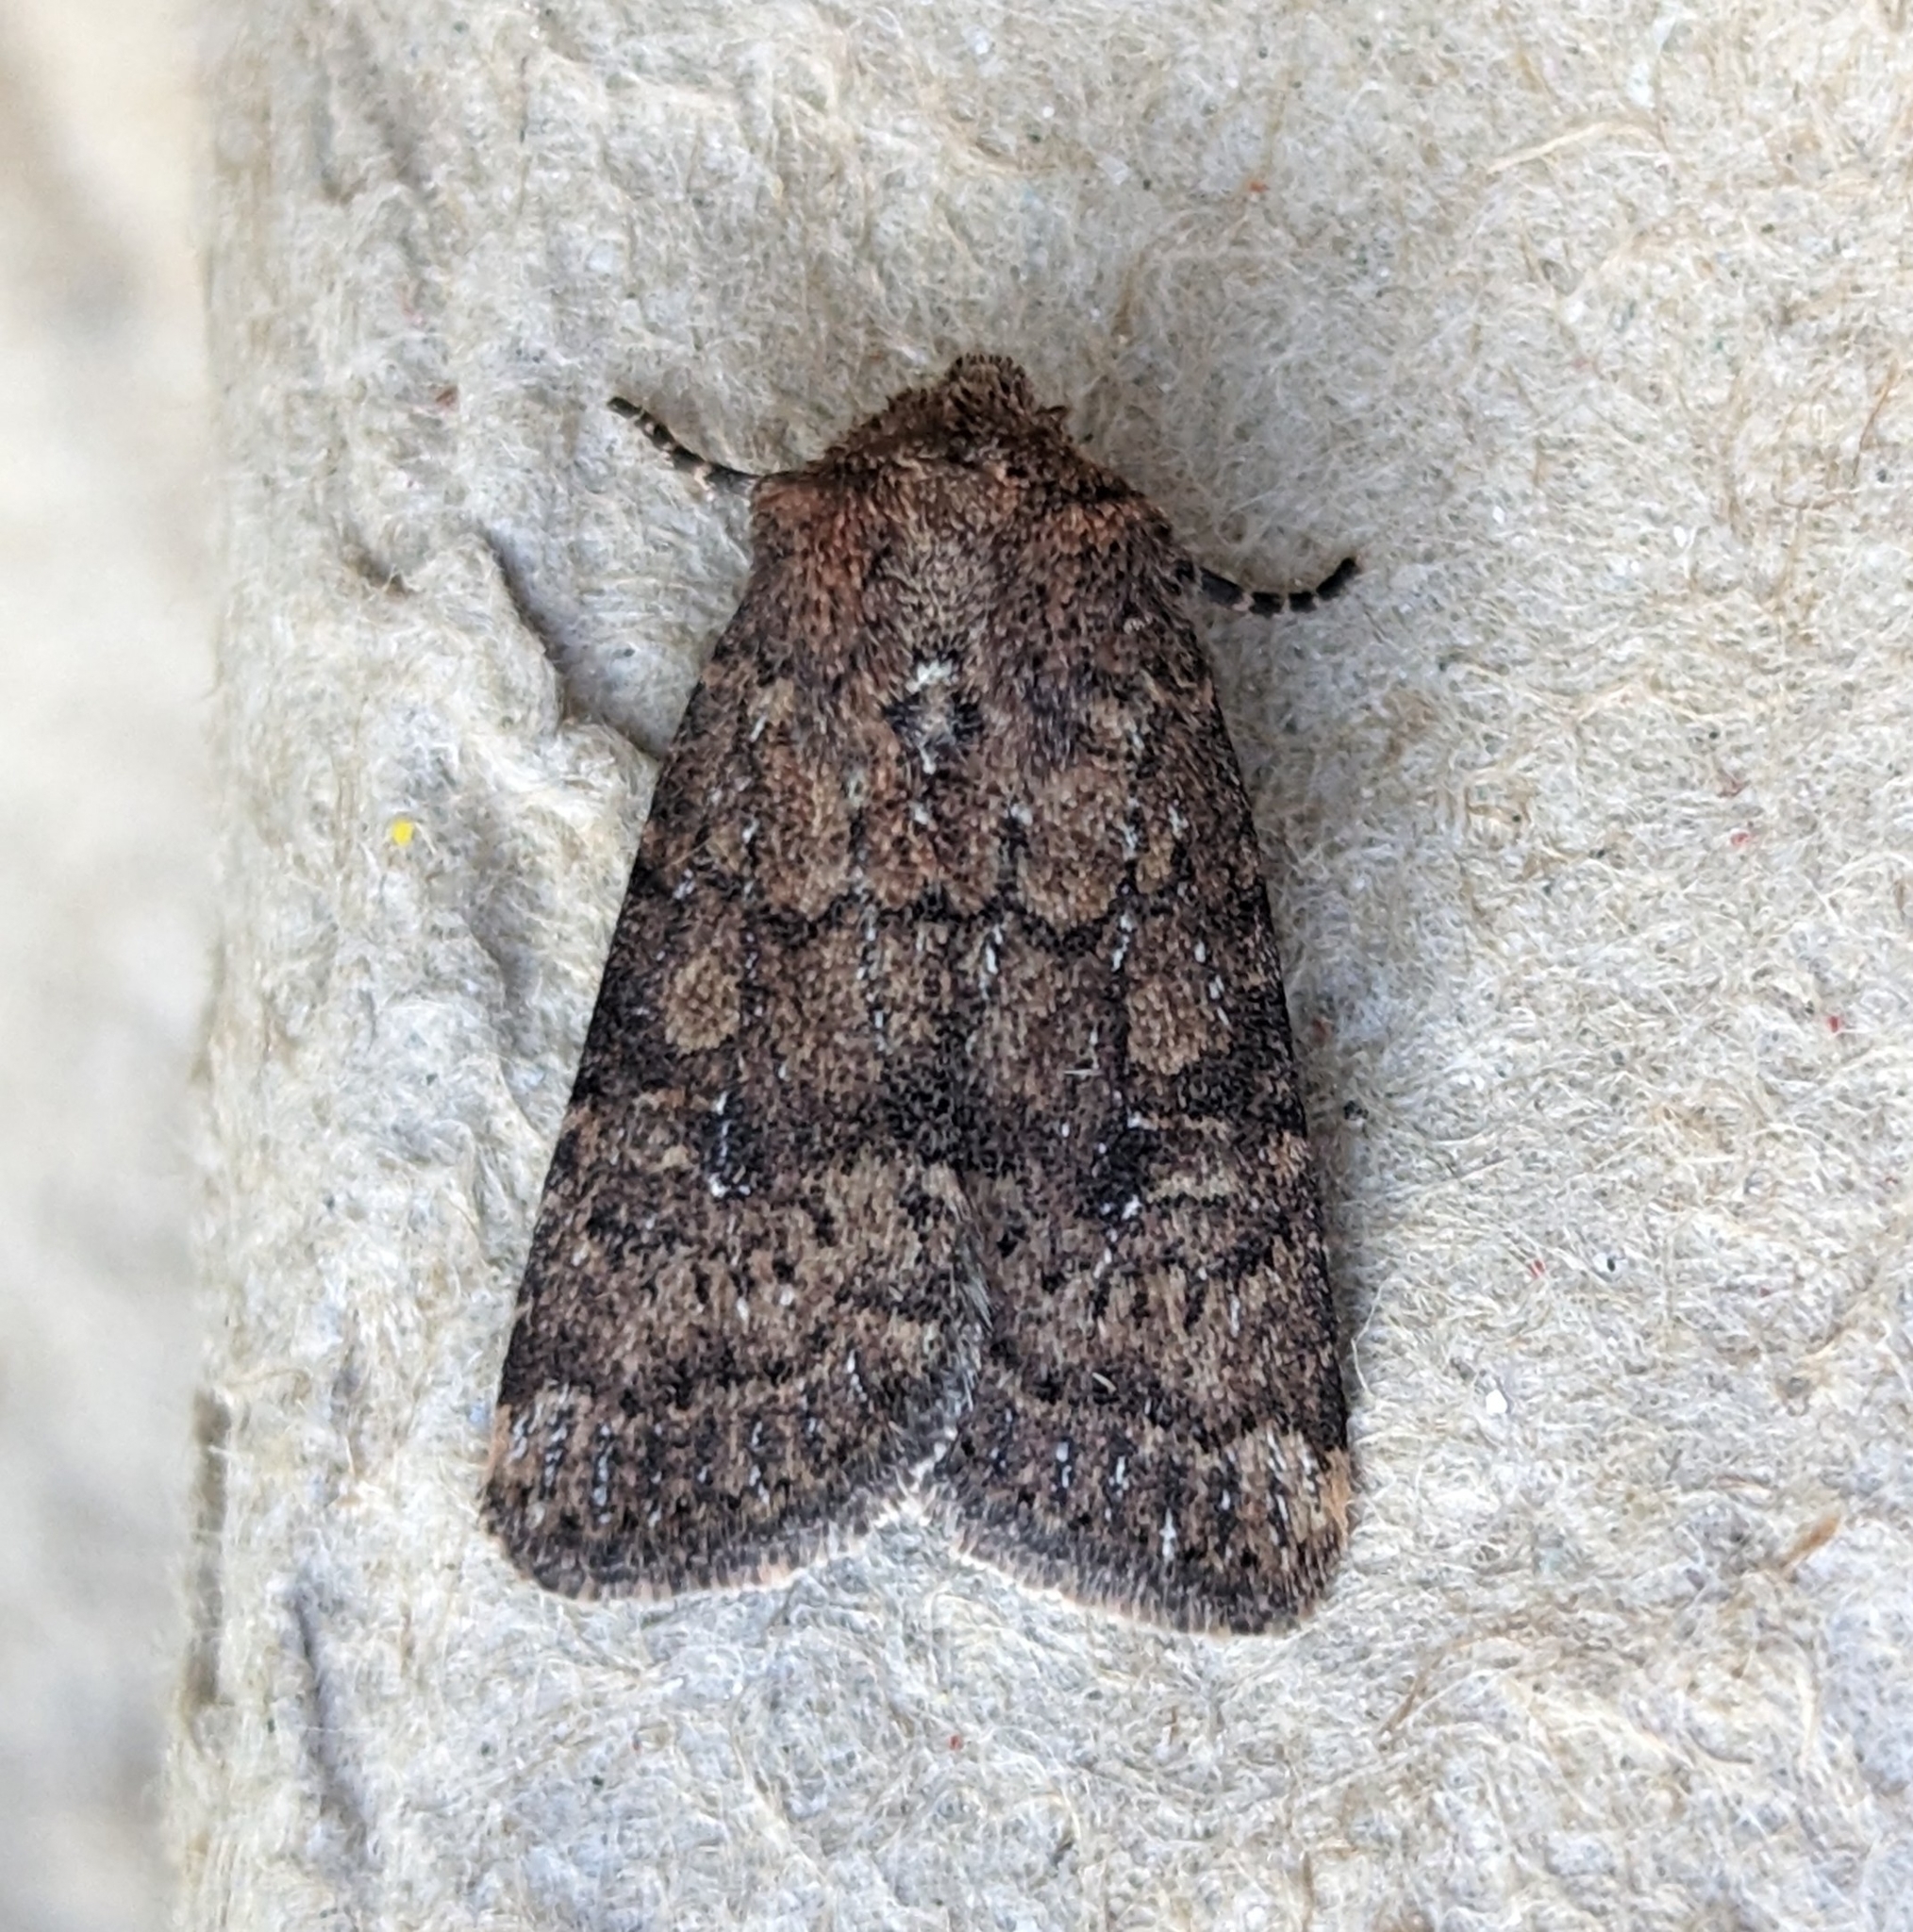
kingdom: Animalia
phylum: Arthropoda
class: Insecta
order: Lepidoptera
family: Noctuidae
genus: Homorthodes
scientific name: Homorthodes hanhami
